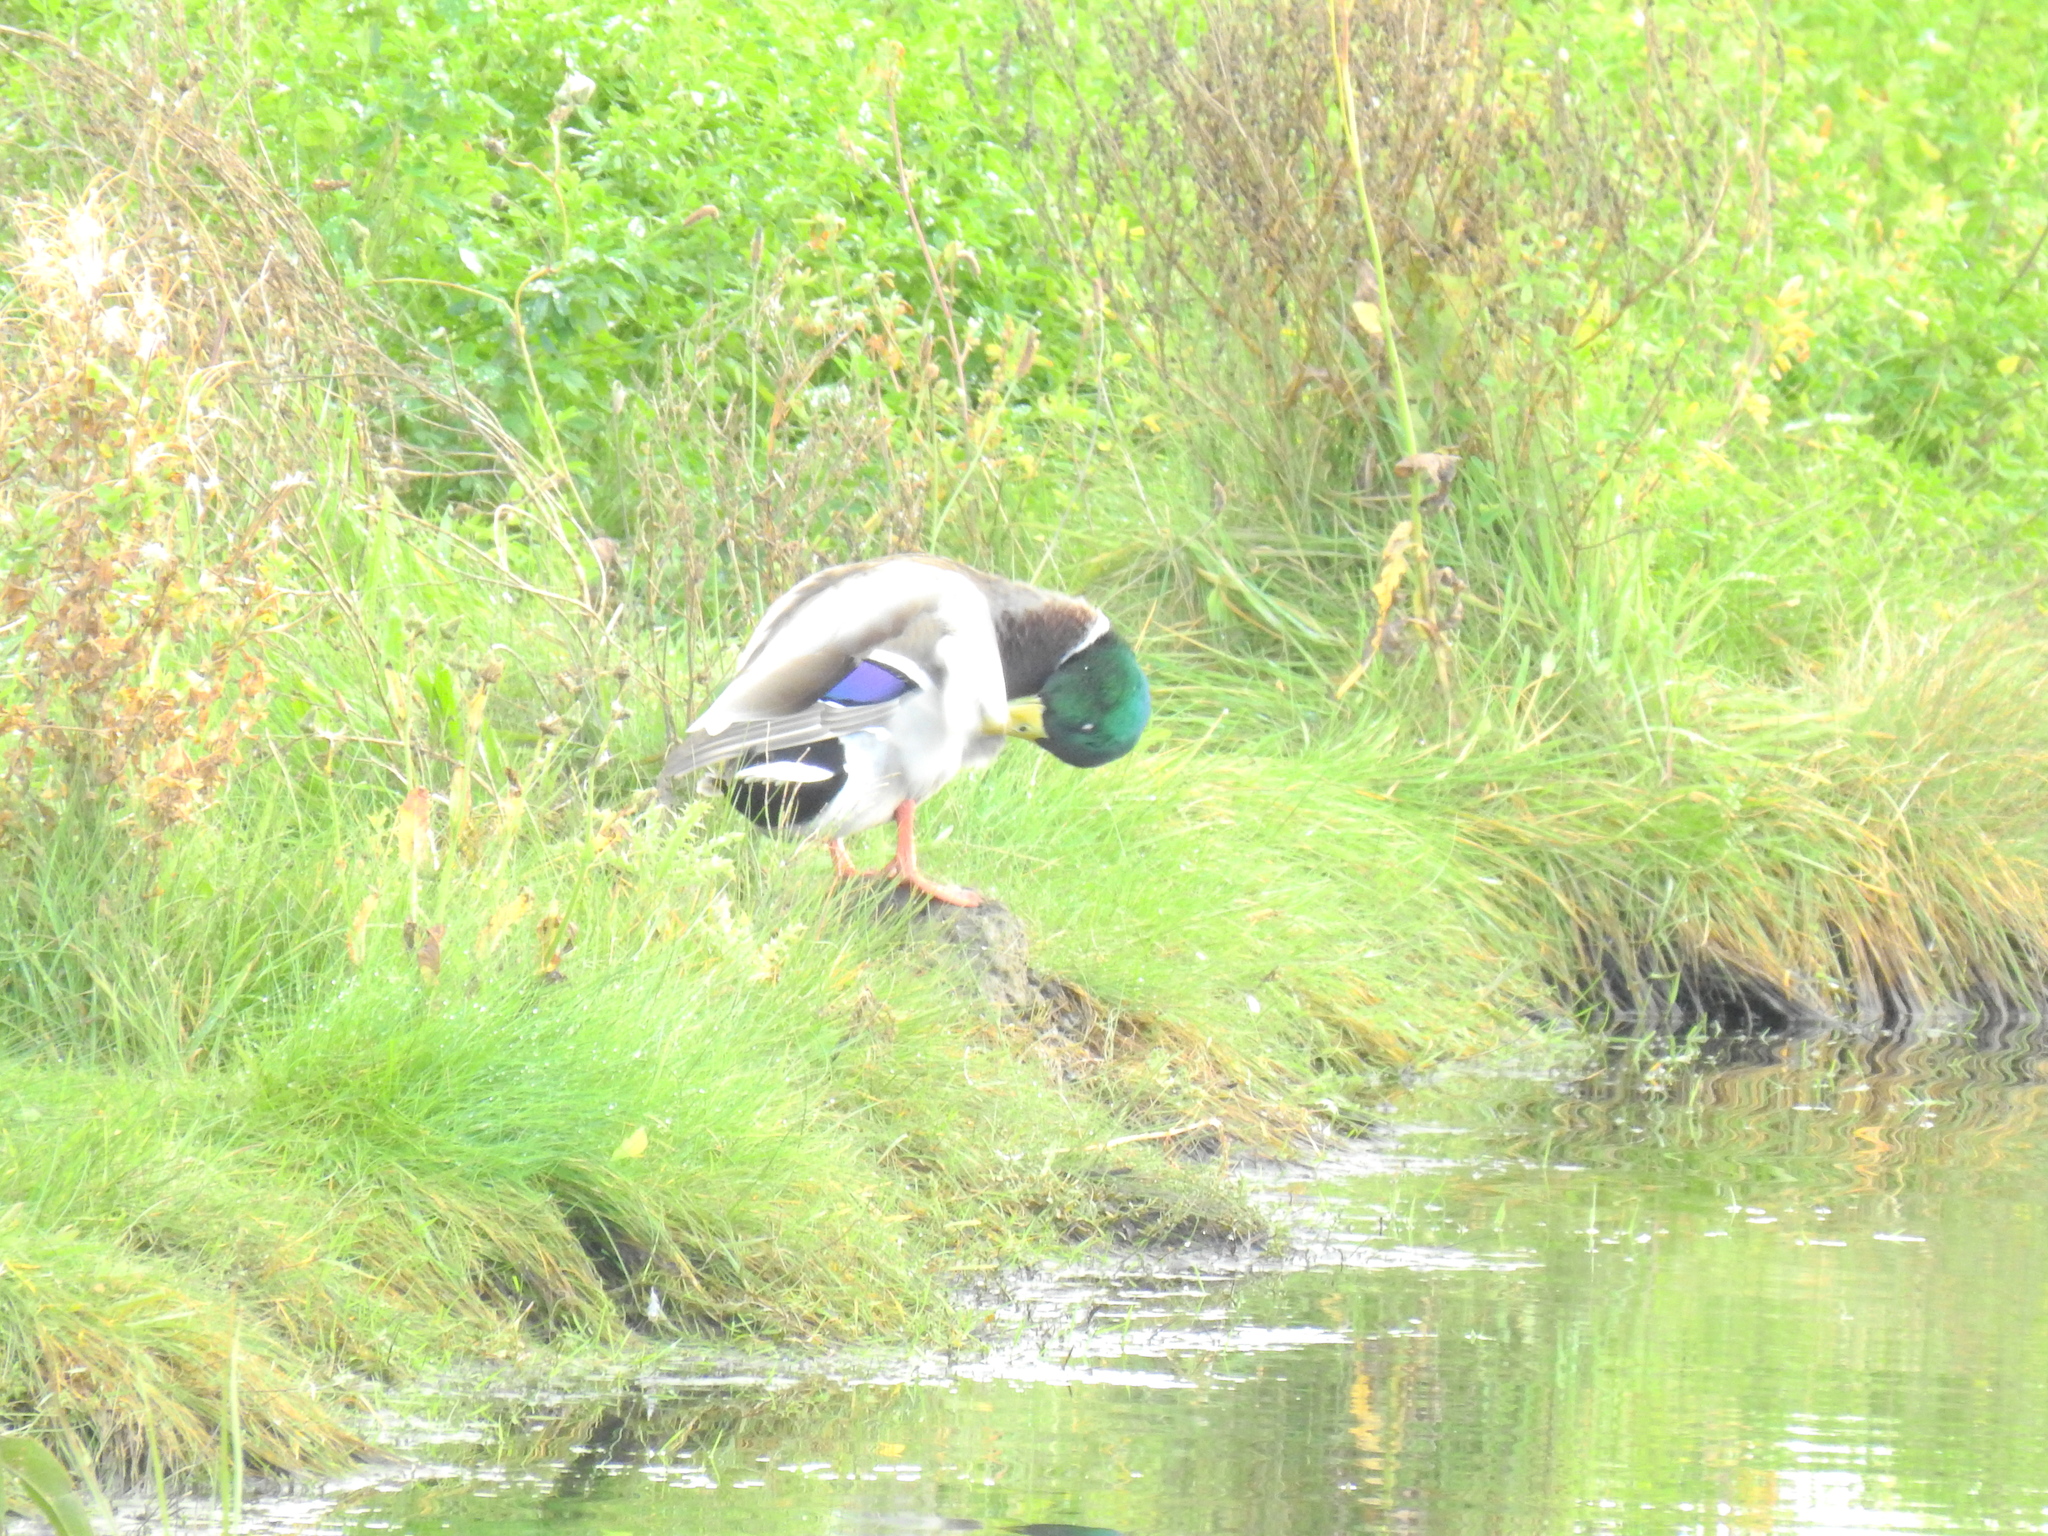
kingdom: Animalia
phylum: Chordata
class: Aves
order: Anseriformes
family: Anatidae
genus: Anas
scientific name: Anas platyrhynchos
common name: Mallard
